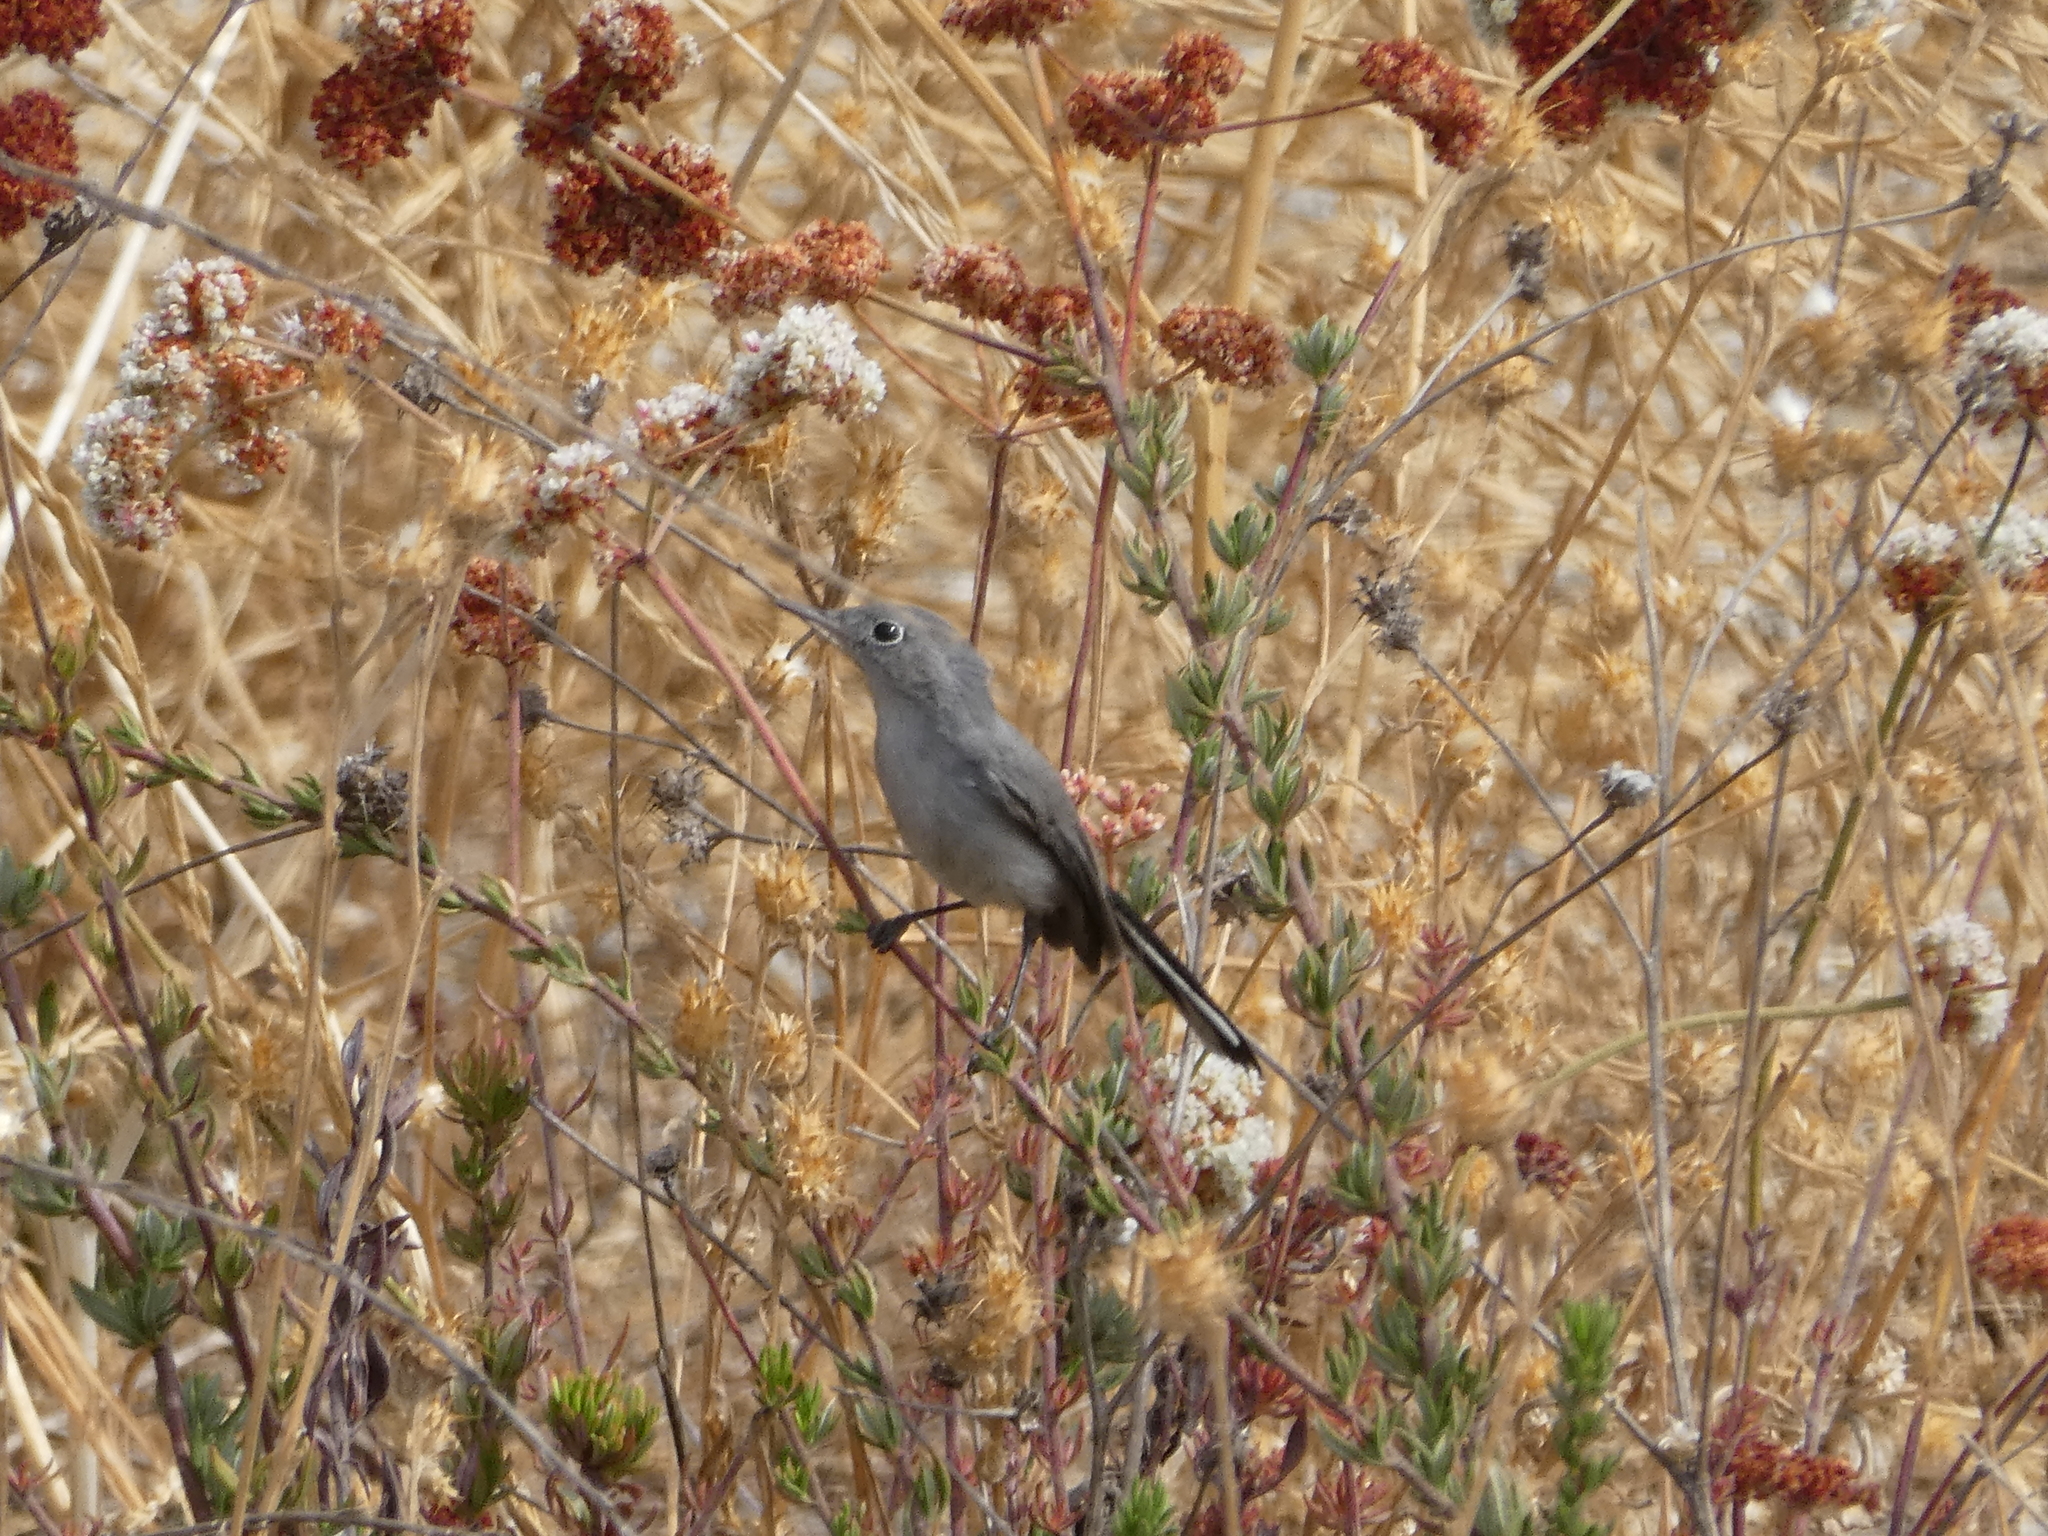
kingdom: Animalia
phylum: Chordata
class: Aves
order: Passeriformes
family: Polioptilidae
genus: Polioptila
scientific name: Polioptila caerulea
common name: Blue-gray gnatcatcher
